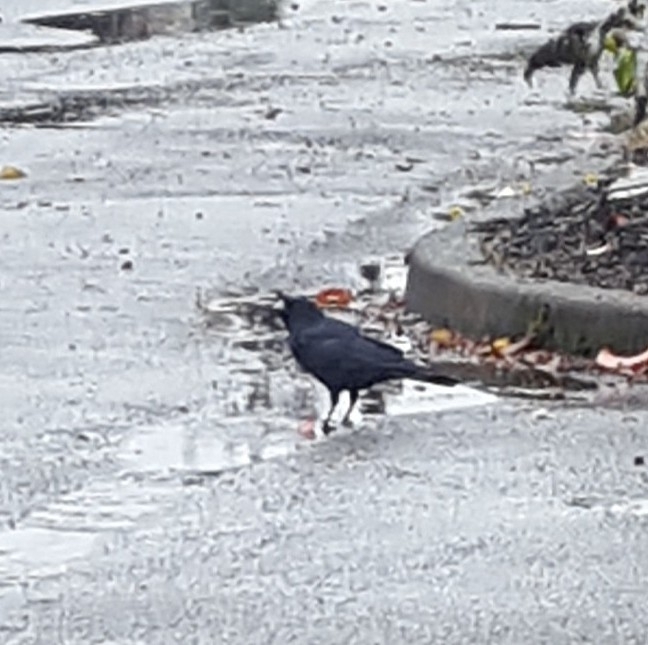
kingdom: Animalia
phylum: Chordata
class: Aves
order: Passeriformes
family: Corvidae
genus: Corvus
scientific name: Corvus brachyrhynchos
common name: American crow
